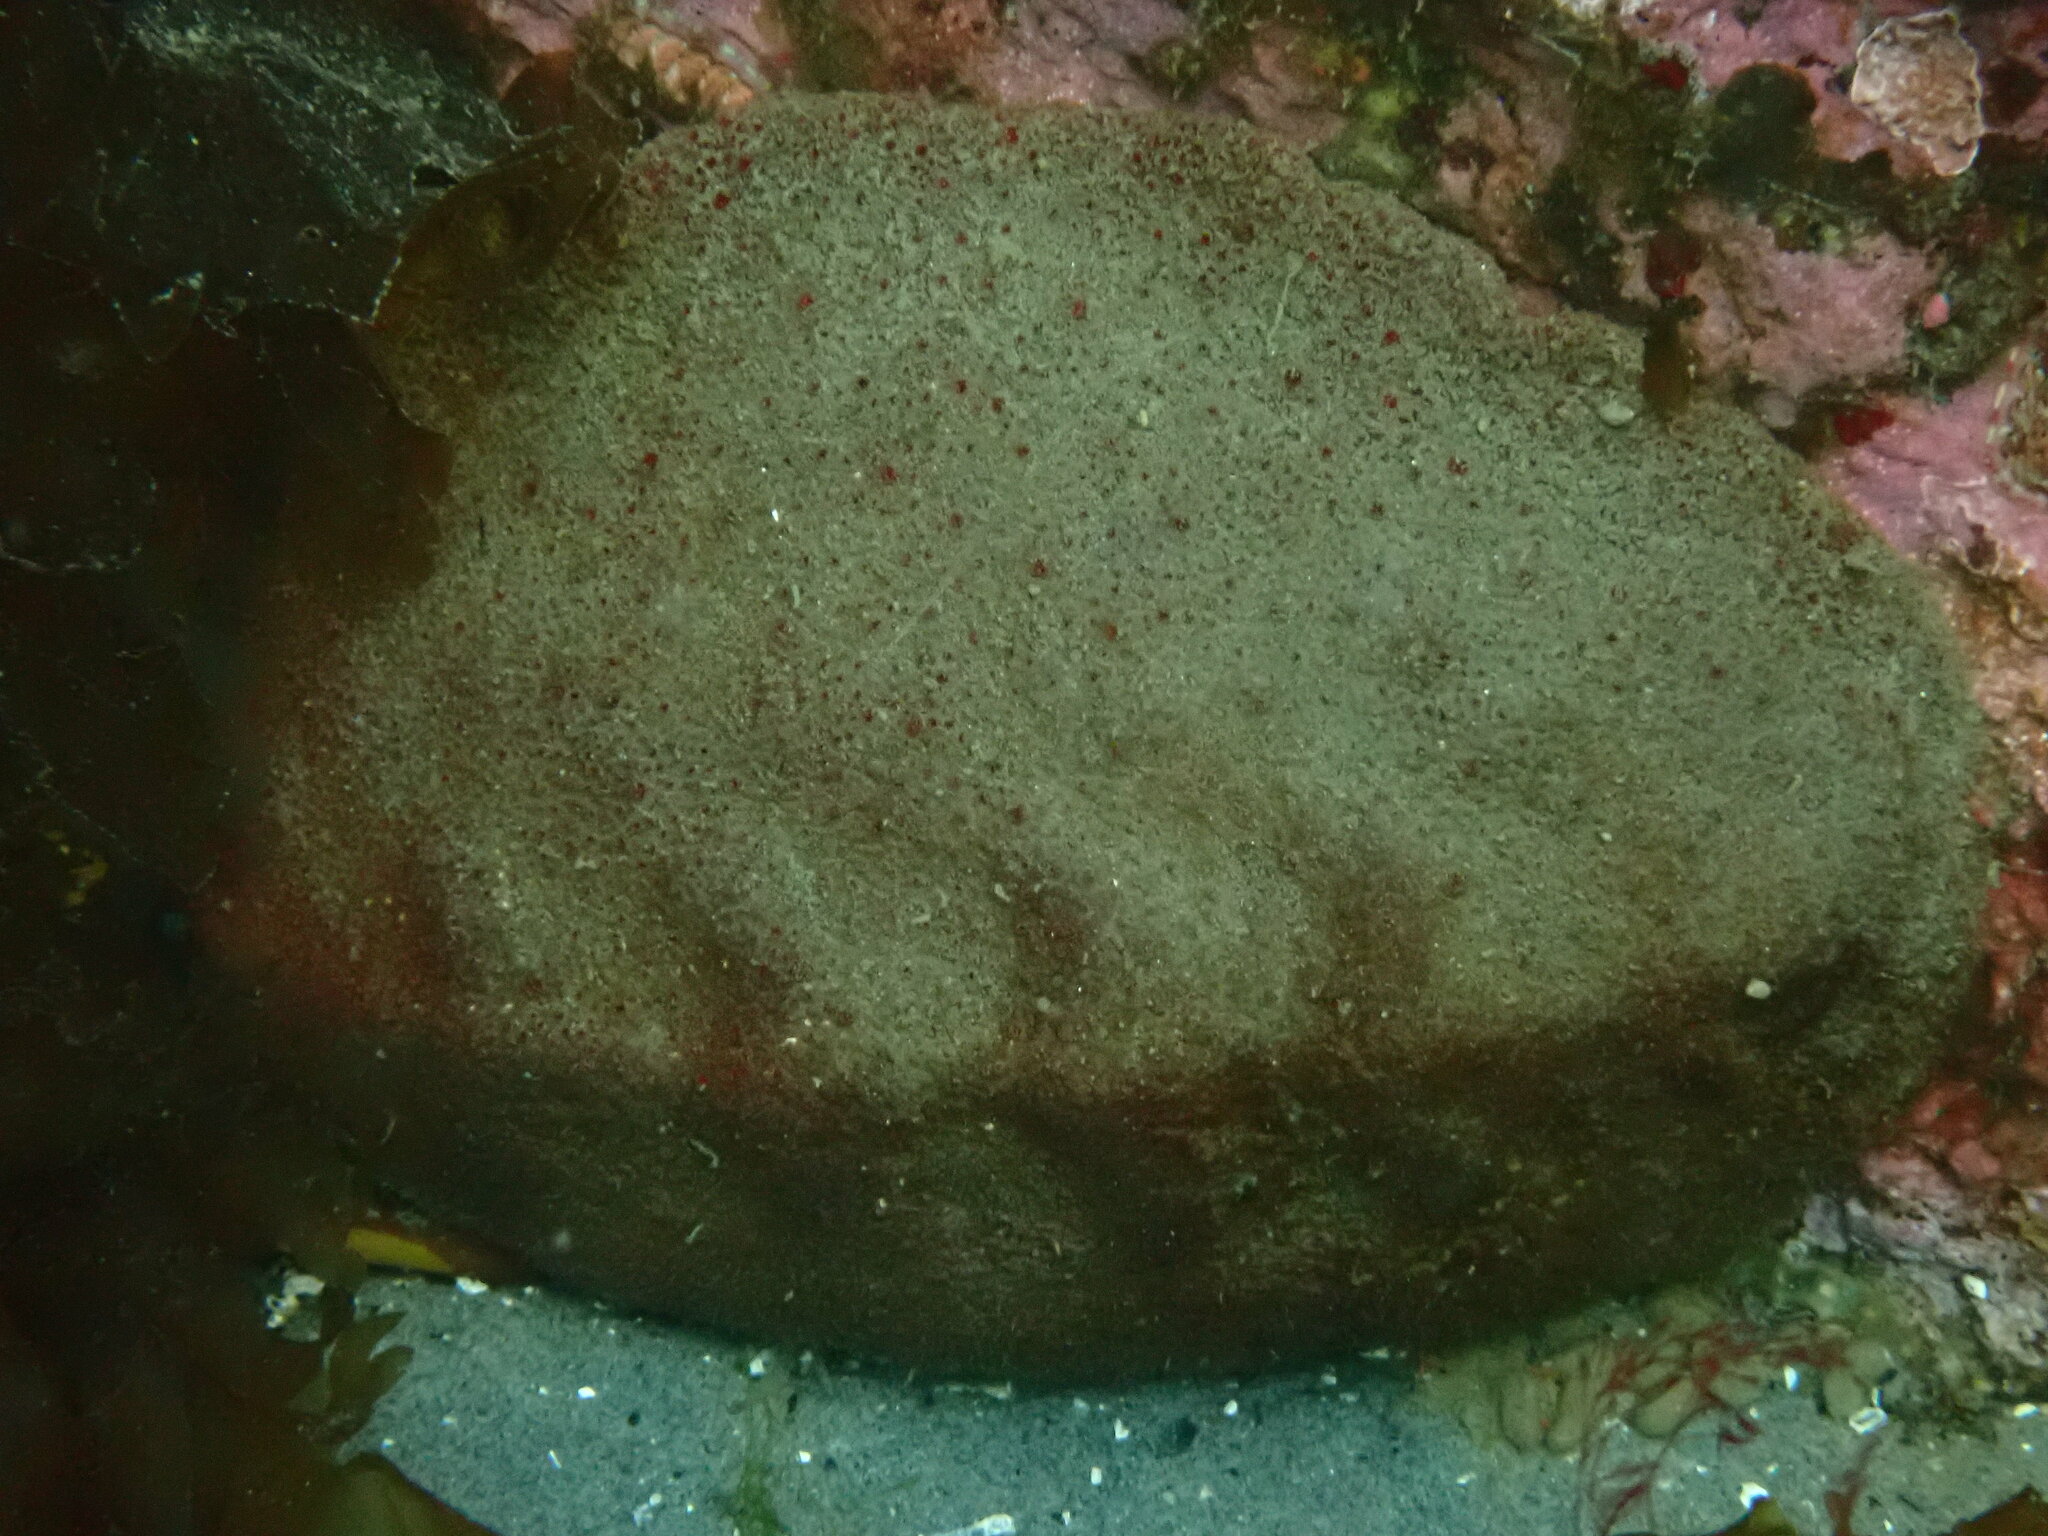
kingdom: Animalia
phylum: Mollusca
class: Polyplacophora
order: Chitonida
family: Acanthochitonidae
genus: Cryptochiton
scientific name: Cryptochiton stelleri
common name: Giant pacific chiton
